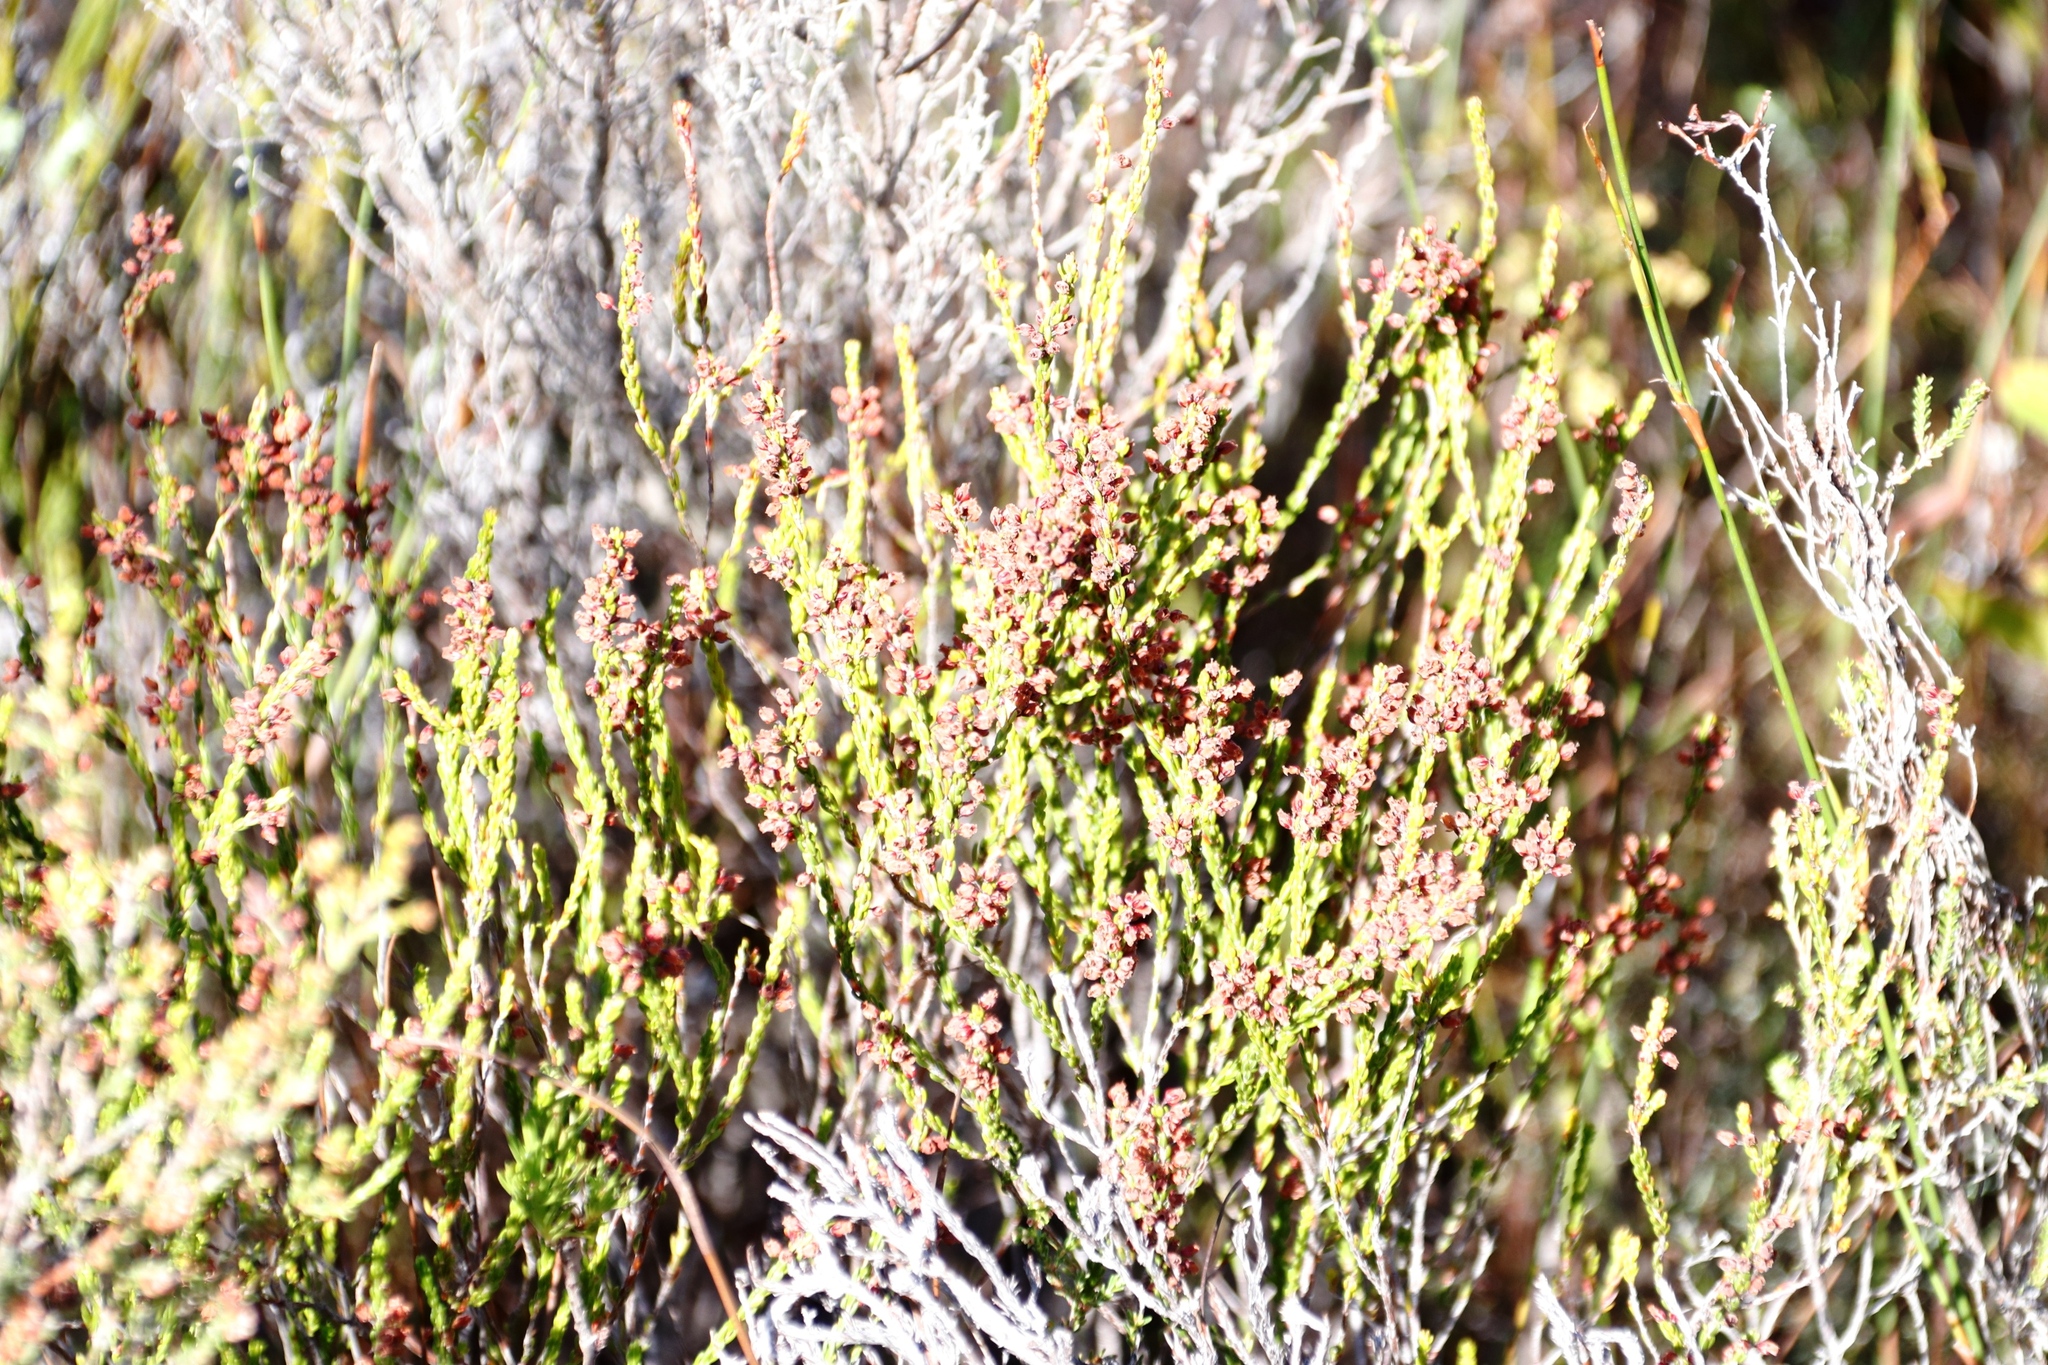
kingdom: Plantae
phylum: Tracheophyta
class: Magnoliopsida
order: Ericales
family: Ericaceae
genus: Erica
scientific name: Erica pulchella
